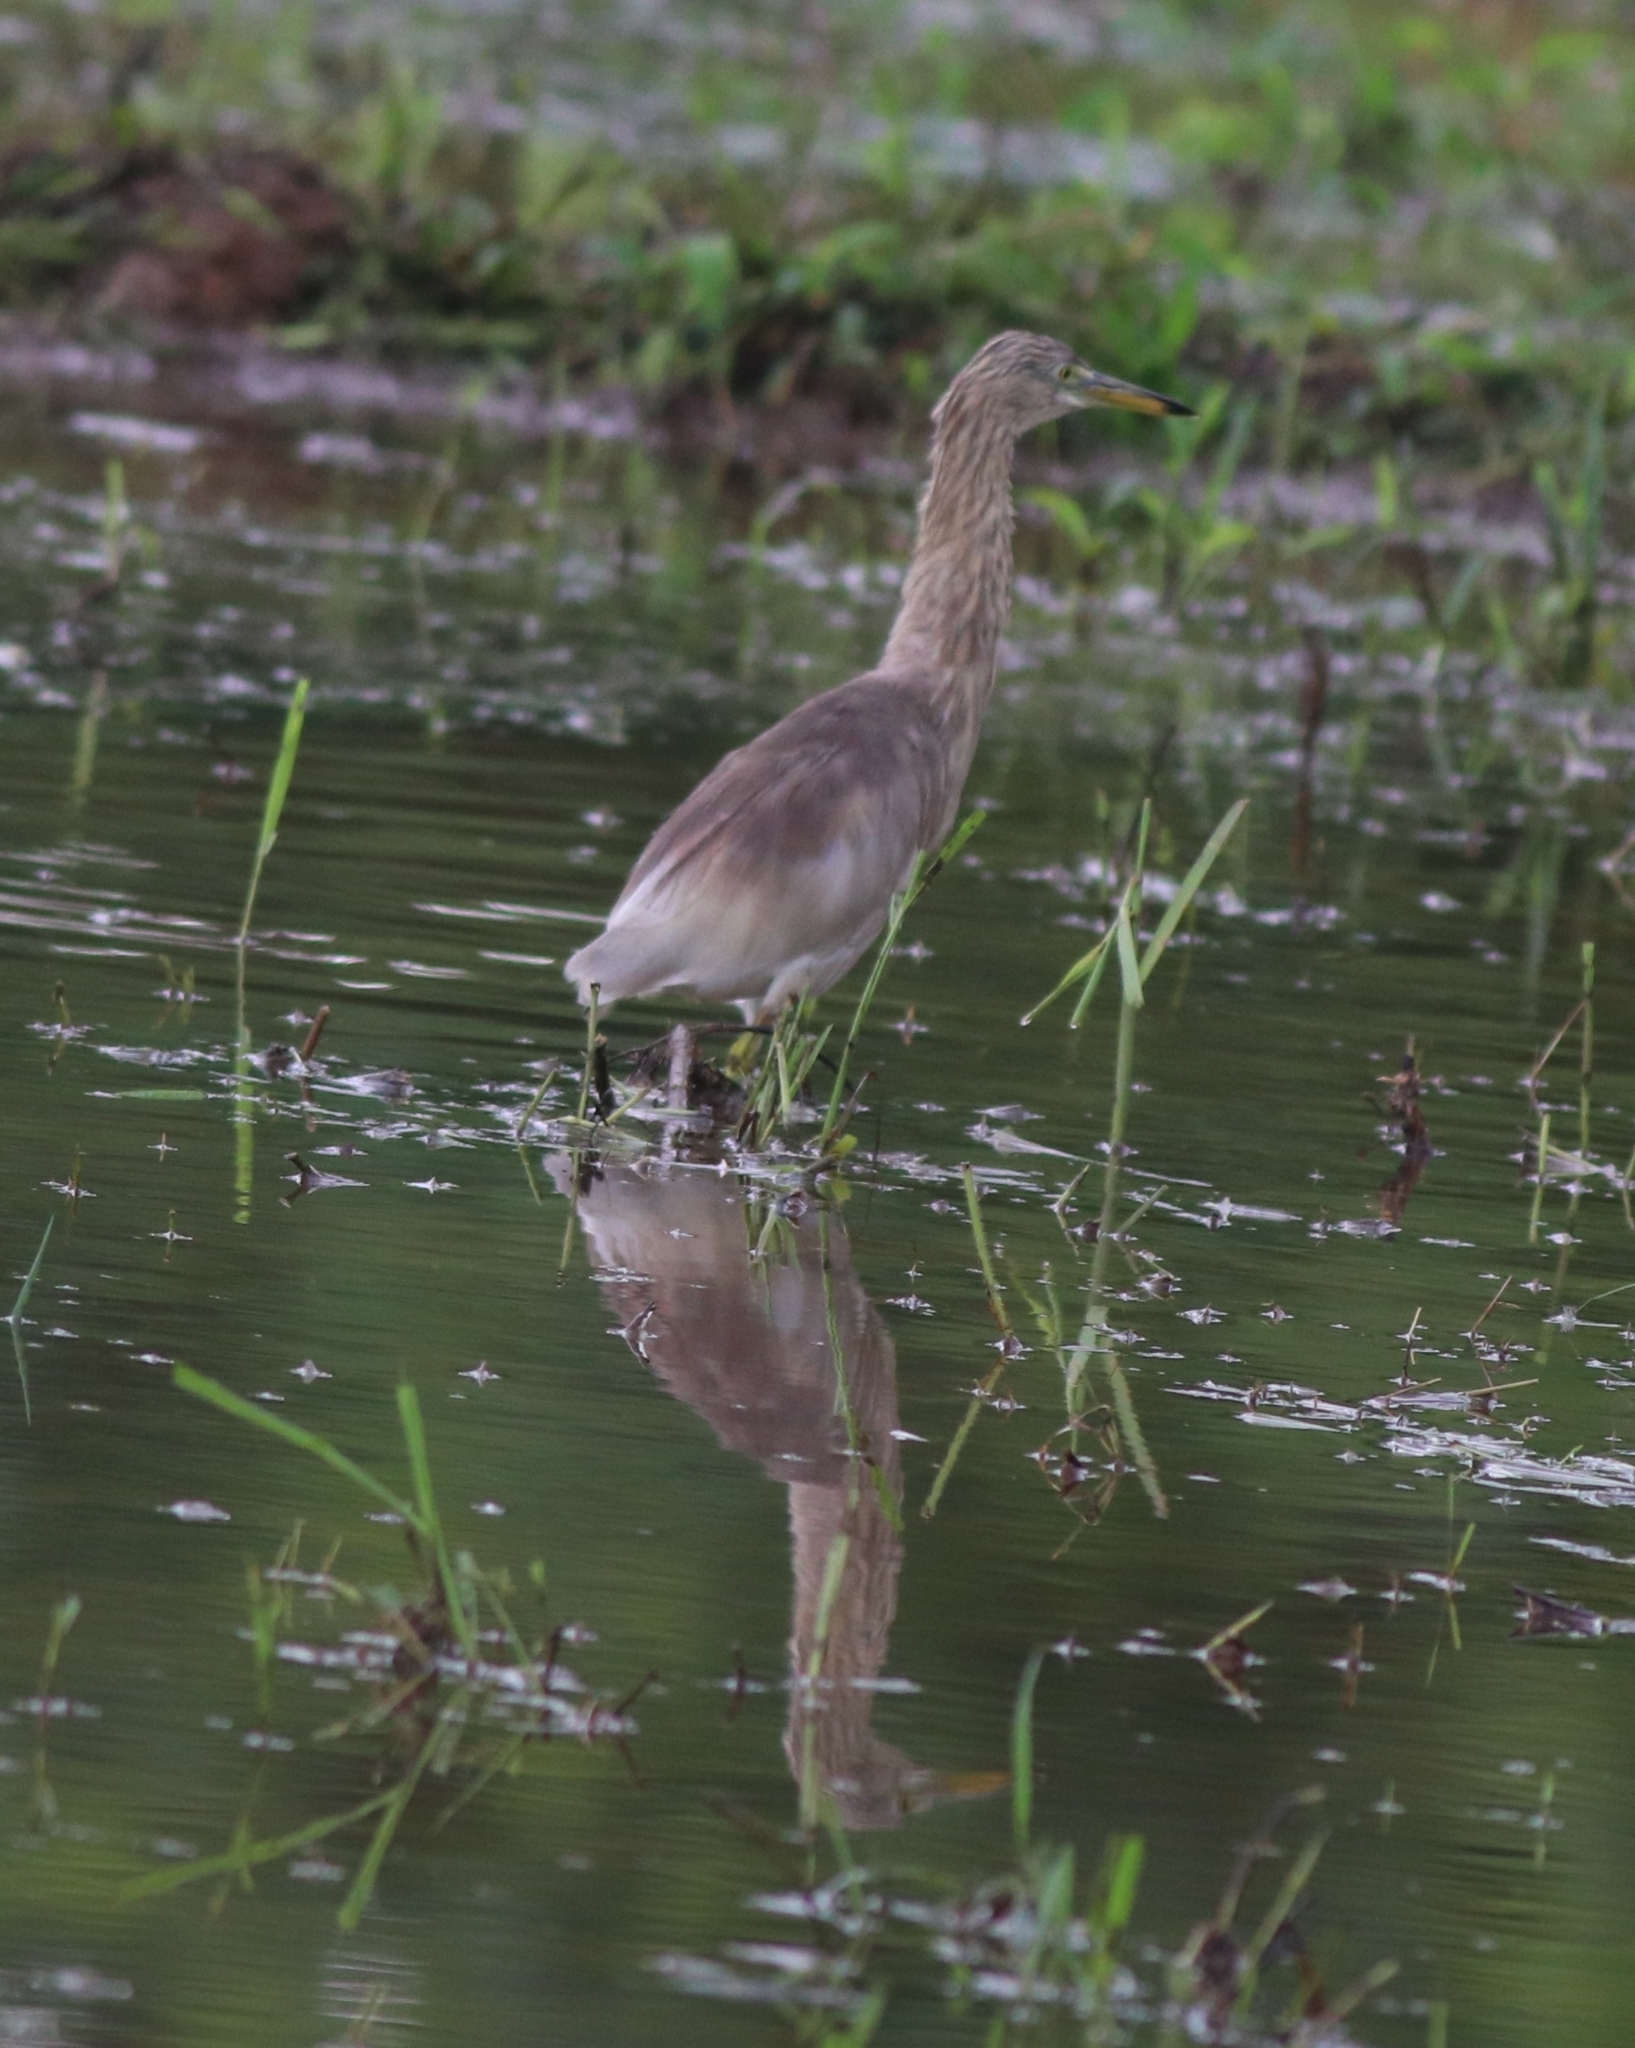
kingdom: Animalia
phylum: Chordata
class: Aves
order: Pelecaniformes
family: Ardeidae
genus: Ardeola
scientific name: Ardeola grayii
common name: Indian pond heron
